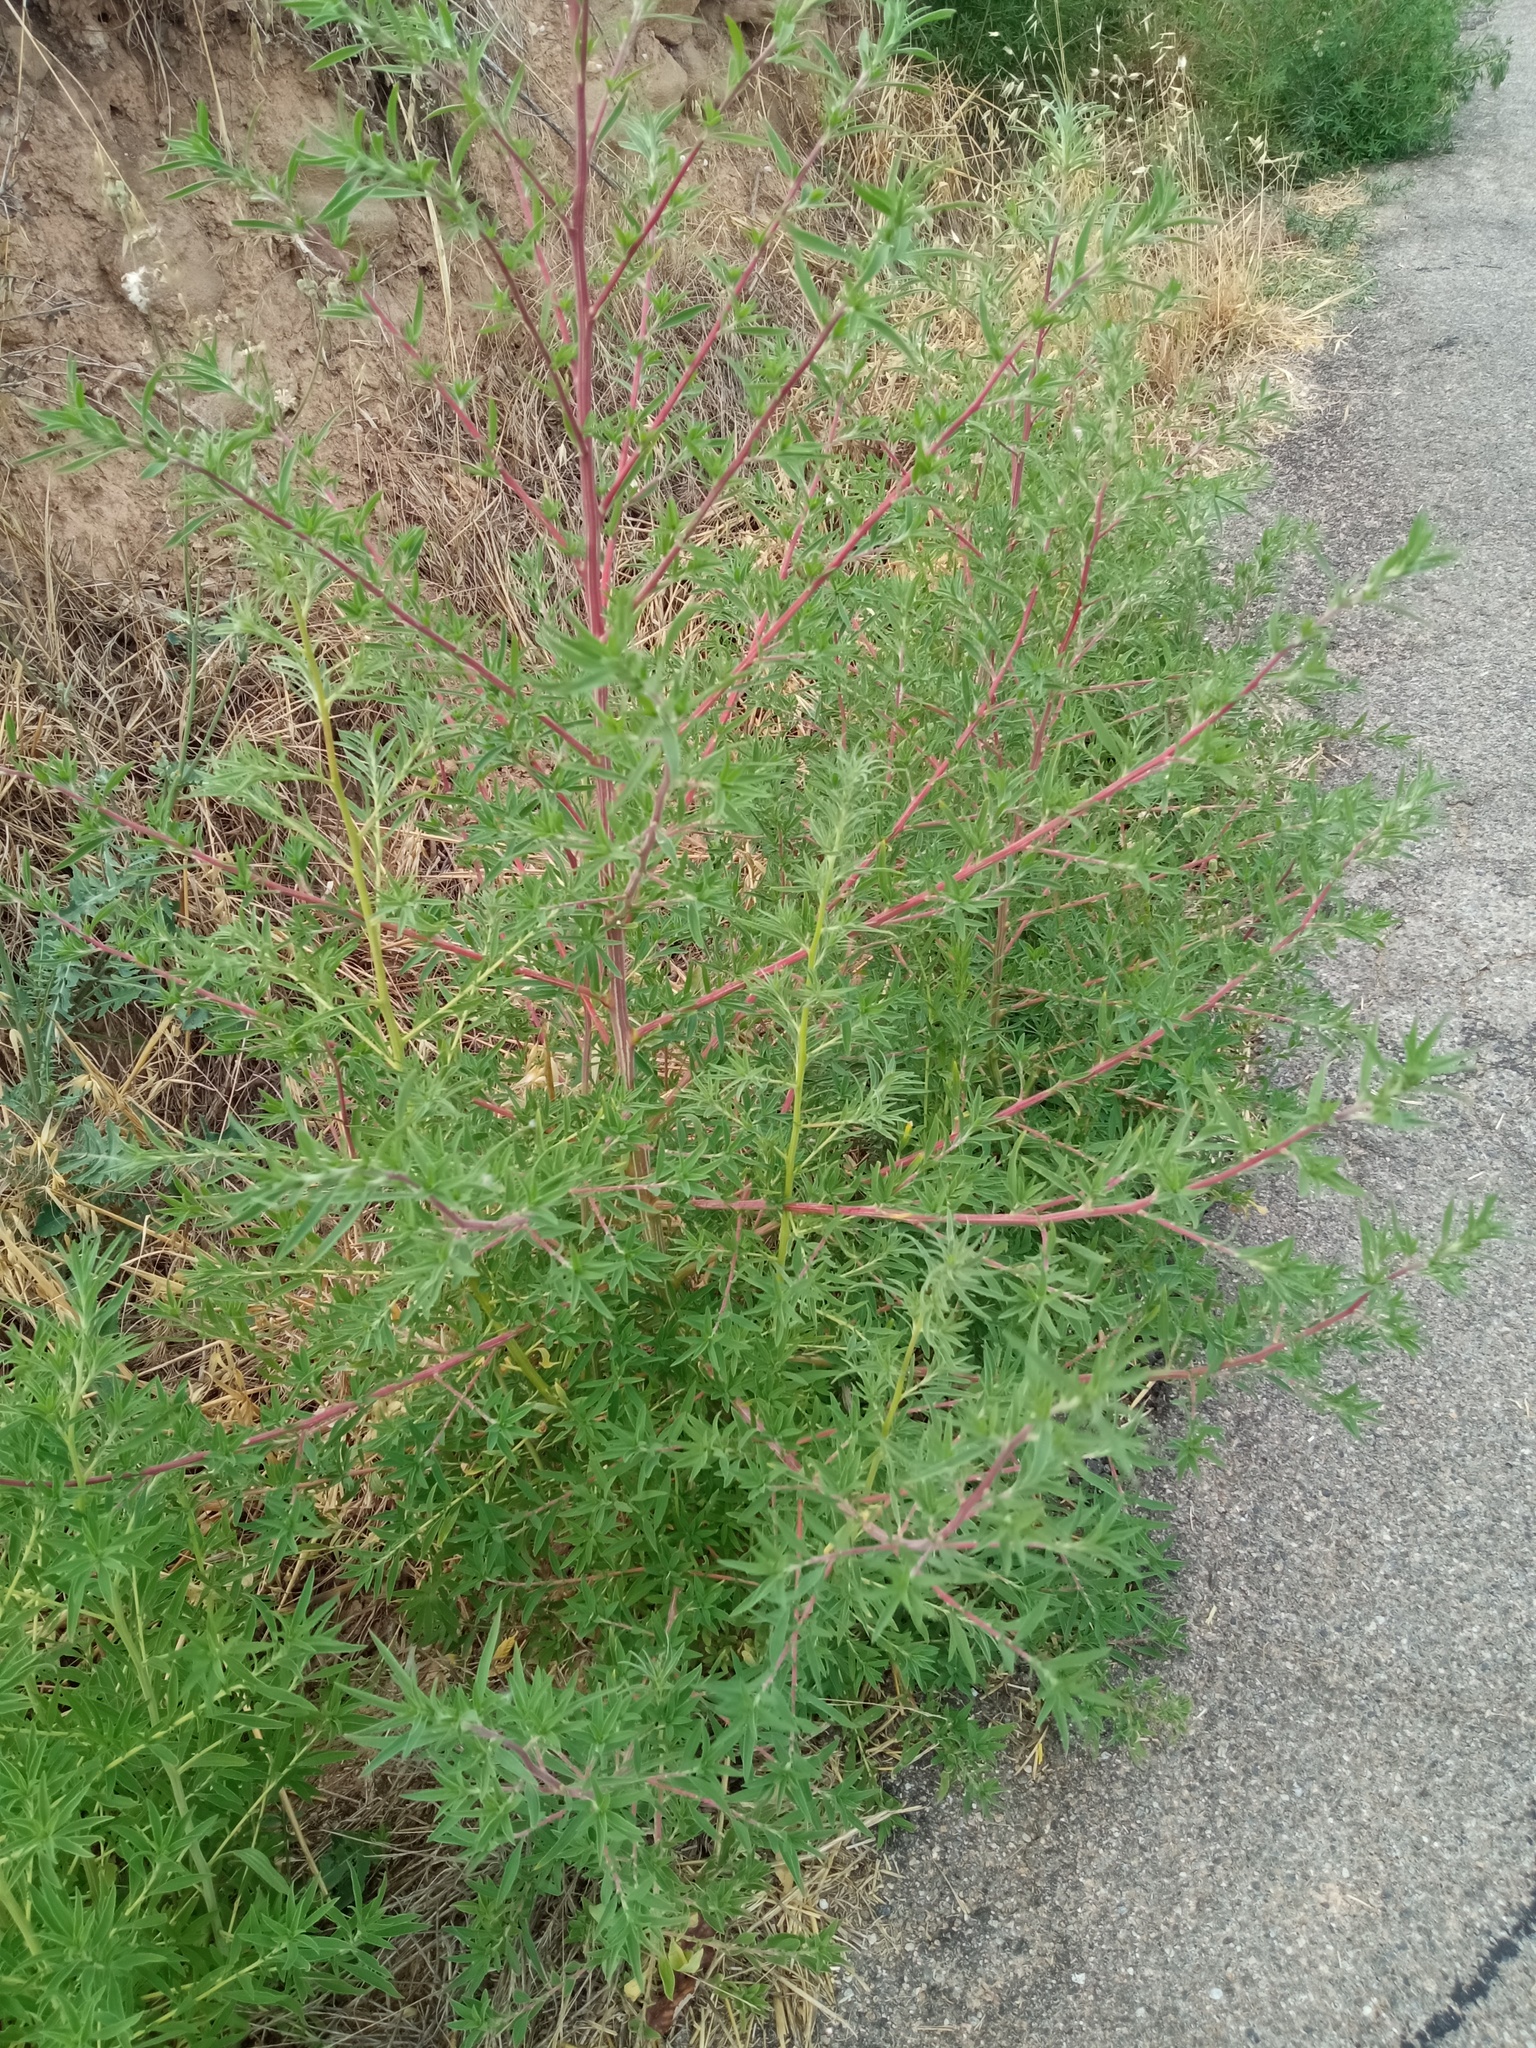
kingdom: Plantae
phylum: Tracheophyta
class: Magnoliopsida
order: Caryophyllales
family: Amaranthaceae
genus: Bassia
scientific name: Bassia scoparia
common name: Belvedere
